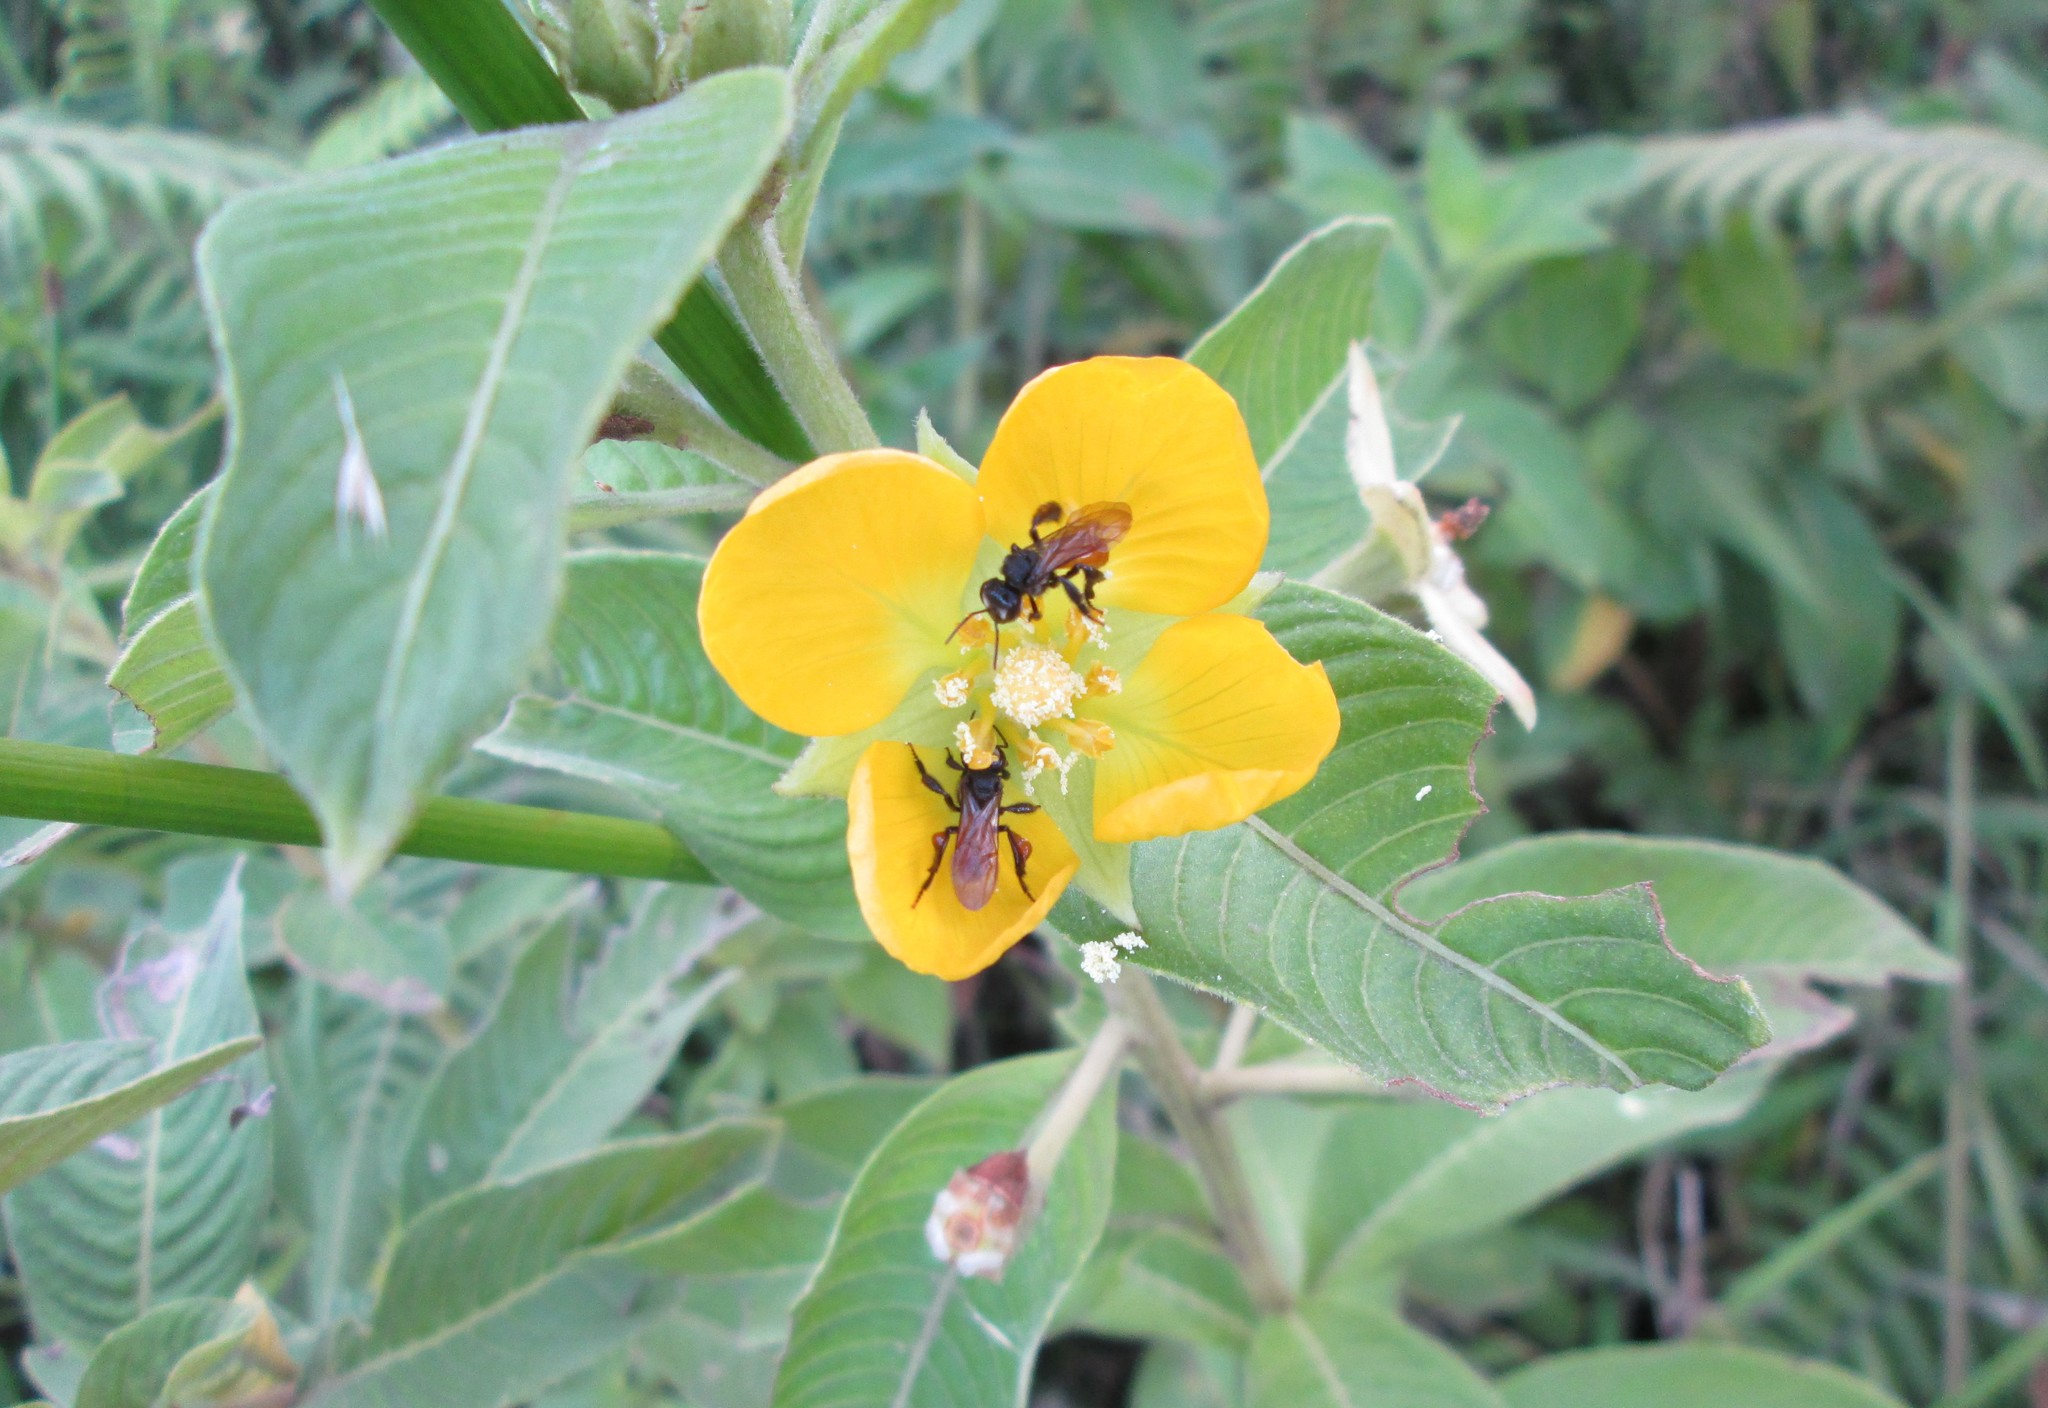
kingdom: Animalia
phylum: Arthropoda
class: Insecta
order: Hymenoptera
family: Apidae
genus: Trigona
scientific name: Trigona fulviventris
